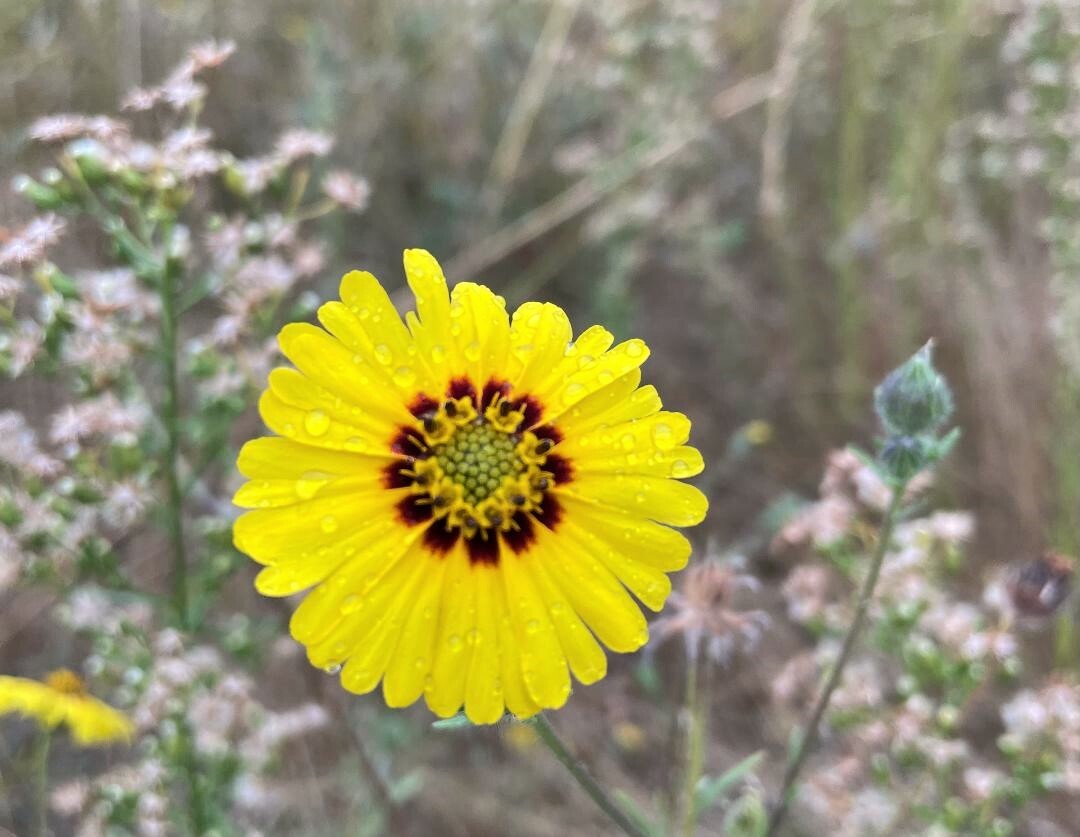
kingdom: Plantae
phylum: Tracheophyta
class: Magnoliopsida
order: Asterales
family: Asteraceae
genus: Madia
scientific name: Madia elegans
